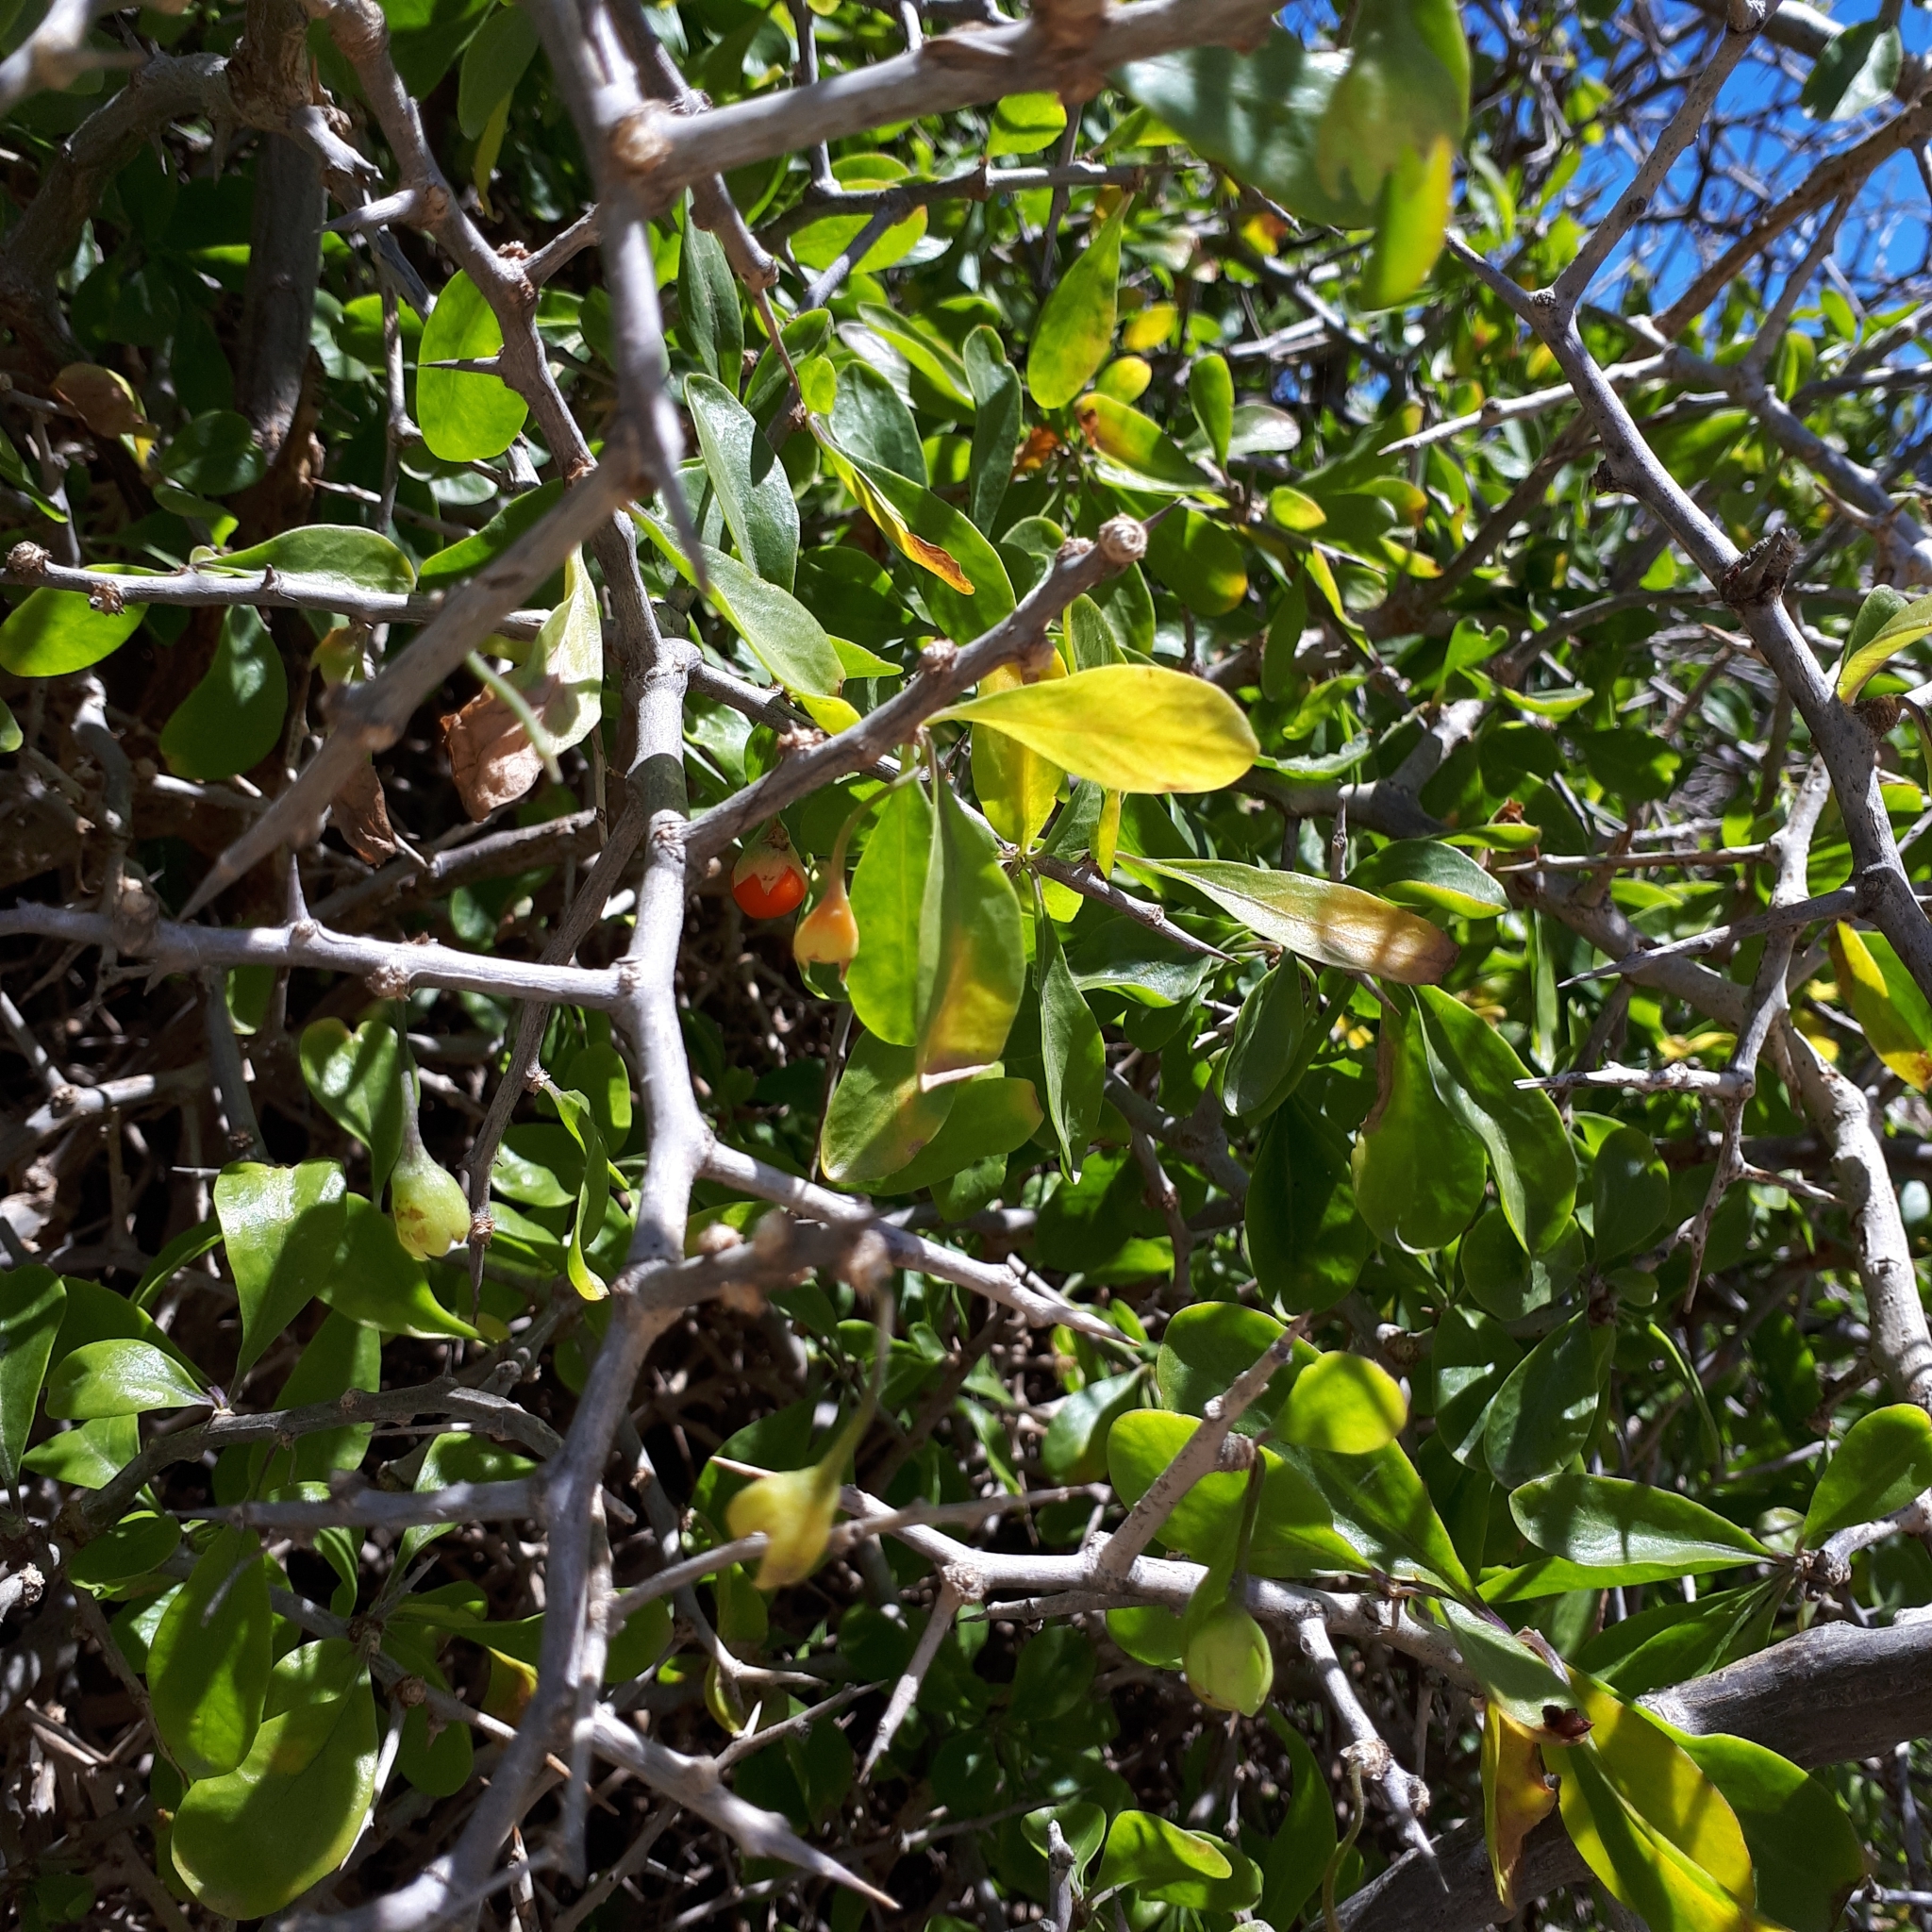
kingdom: Plantae
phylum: Tracheophyta
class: Magnoliopsida
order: Solanales
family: Solanaceae
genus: Lycium
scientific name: Lycium ferocissimum
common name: African boxthorn
